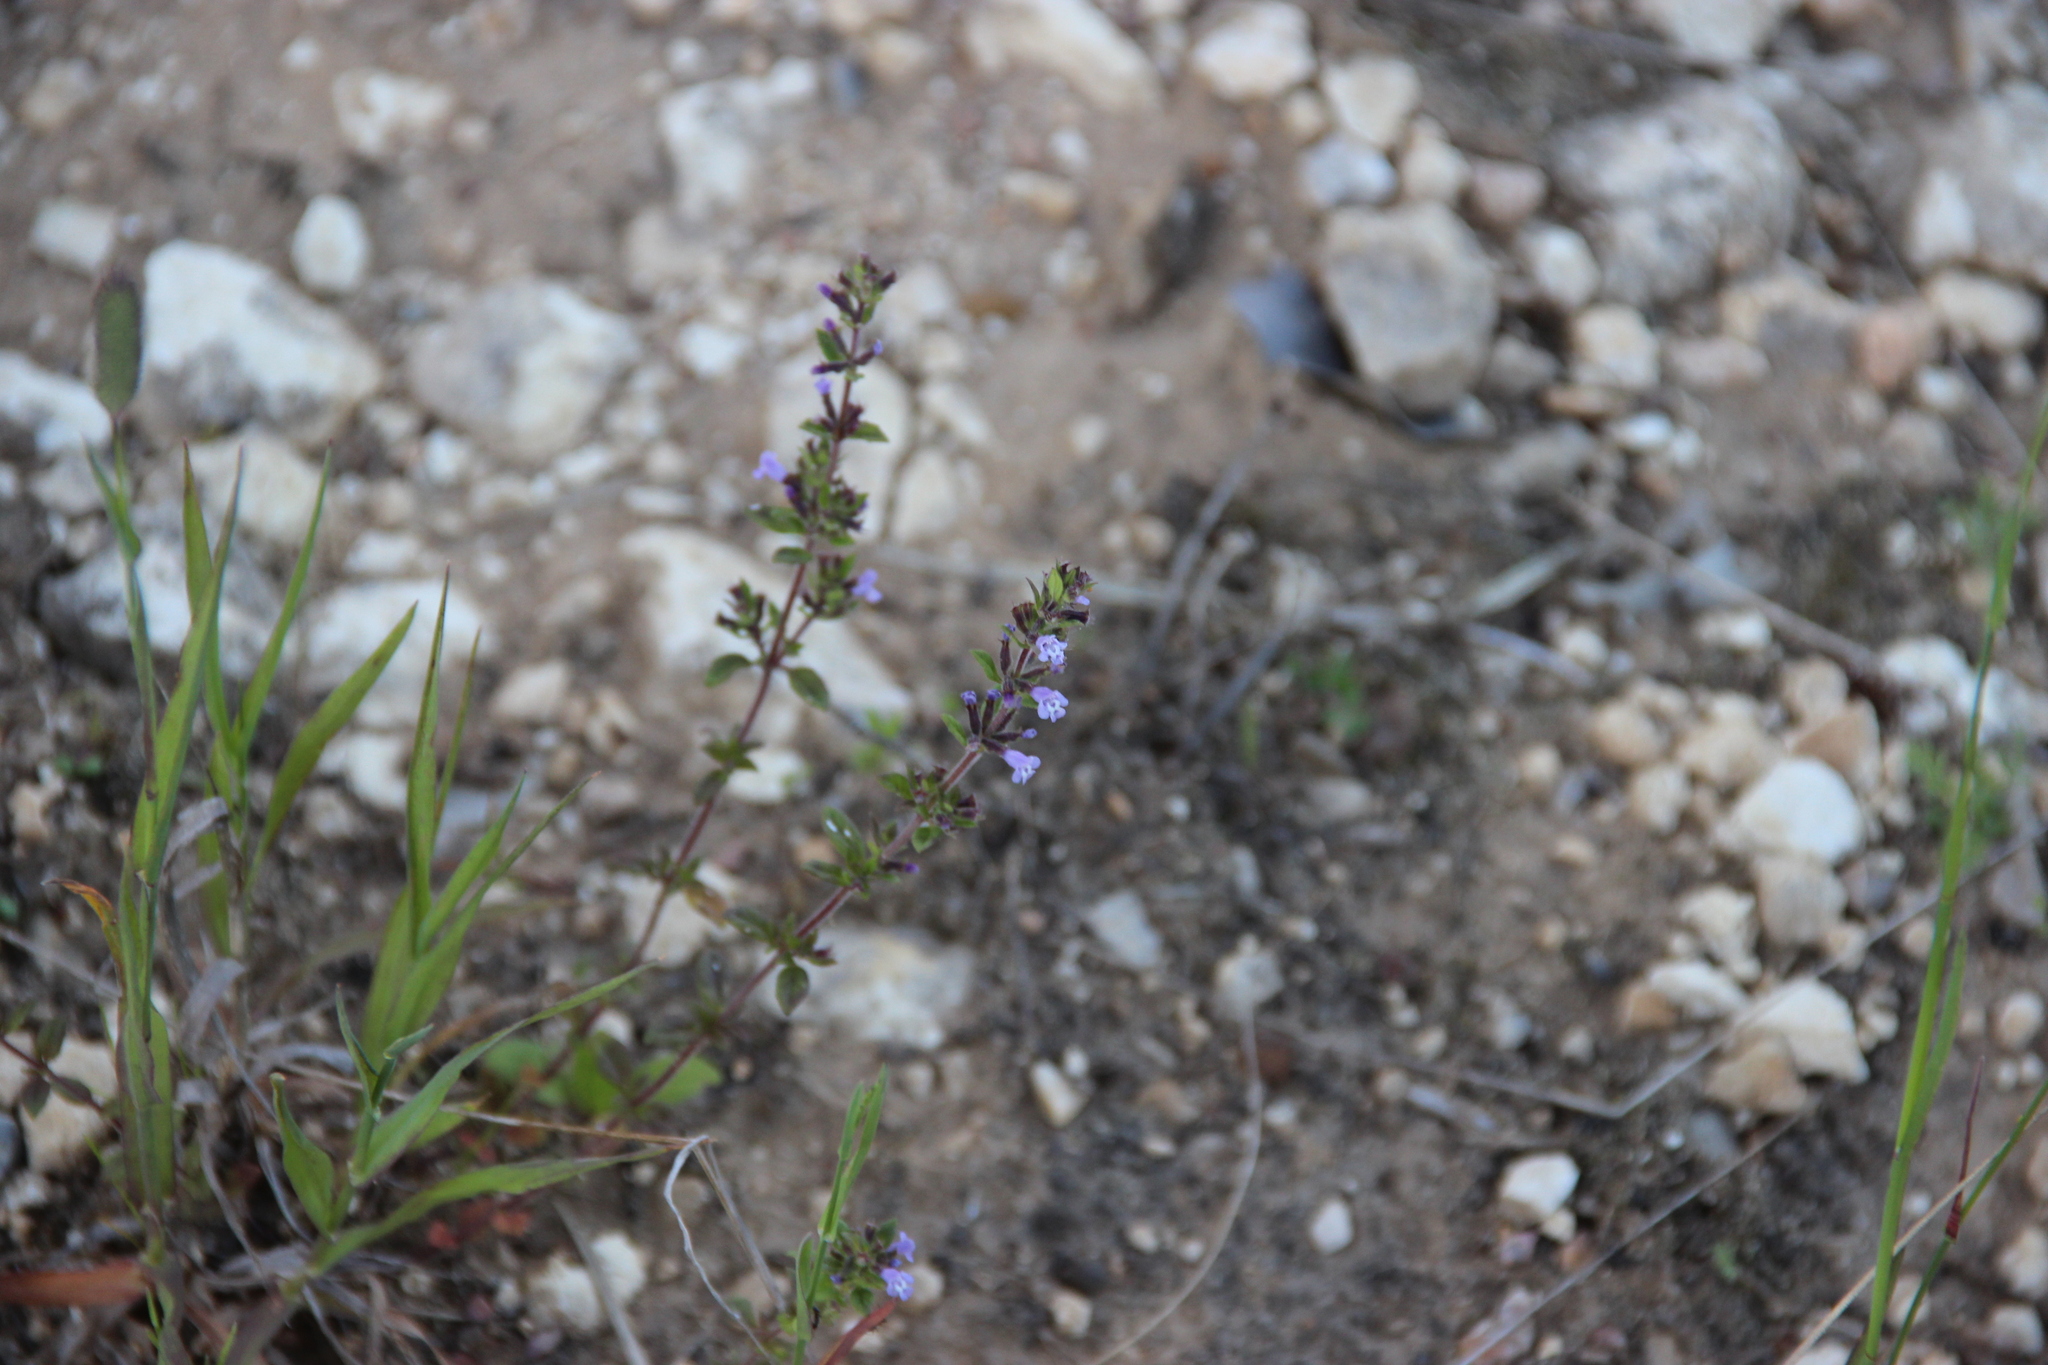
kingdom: Plantae
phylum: Tracheophyta
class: Magnoliopsida
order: Lamiales
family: Lamiaceae
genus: Clinopodium
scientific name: Clinopodium acinos
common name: Basil thyme
